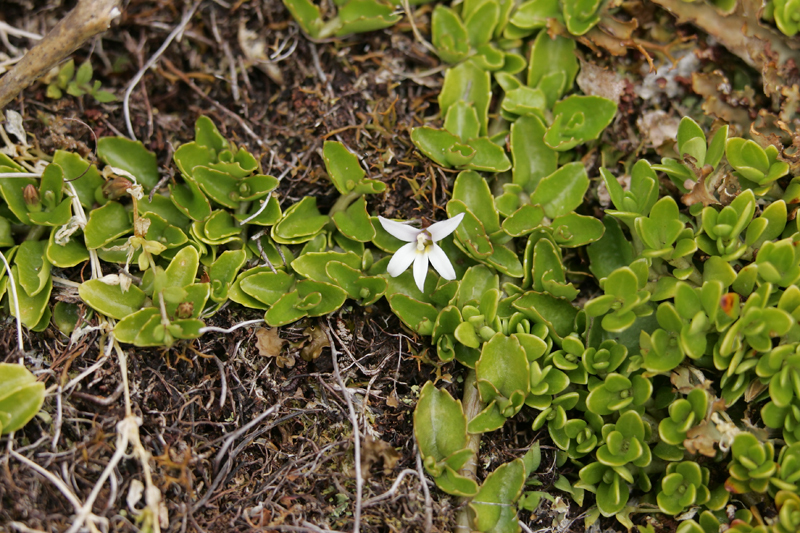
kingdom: Plantae
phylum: Tracheophyta
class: Magnoliopsida
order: Asterales
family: Campanulaceae
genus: Lobelia
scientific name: Lobelia arenaria
